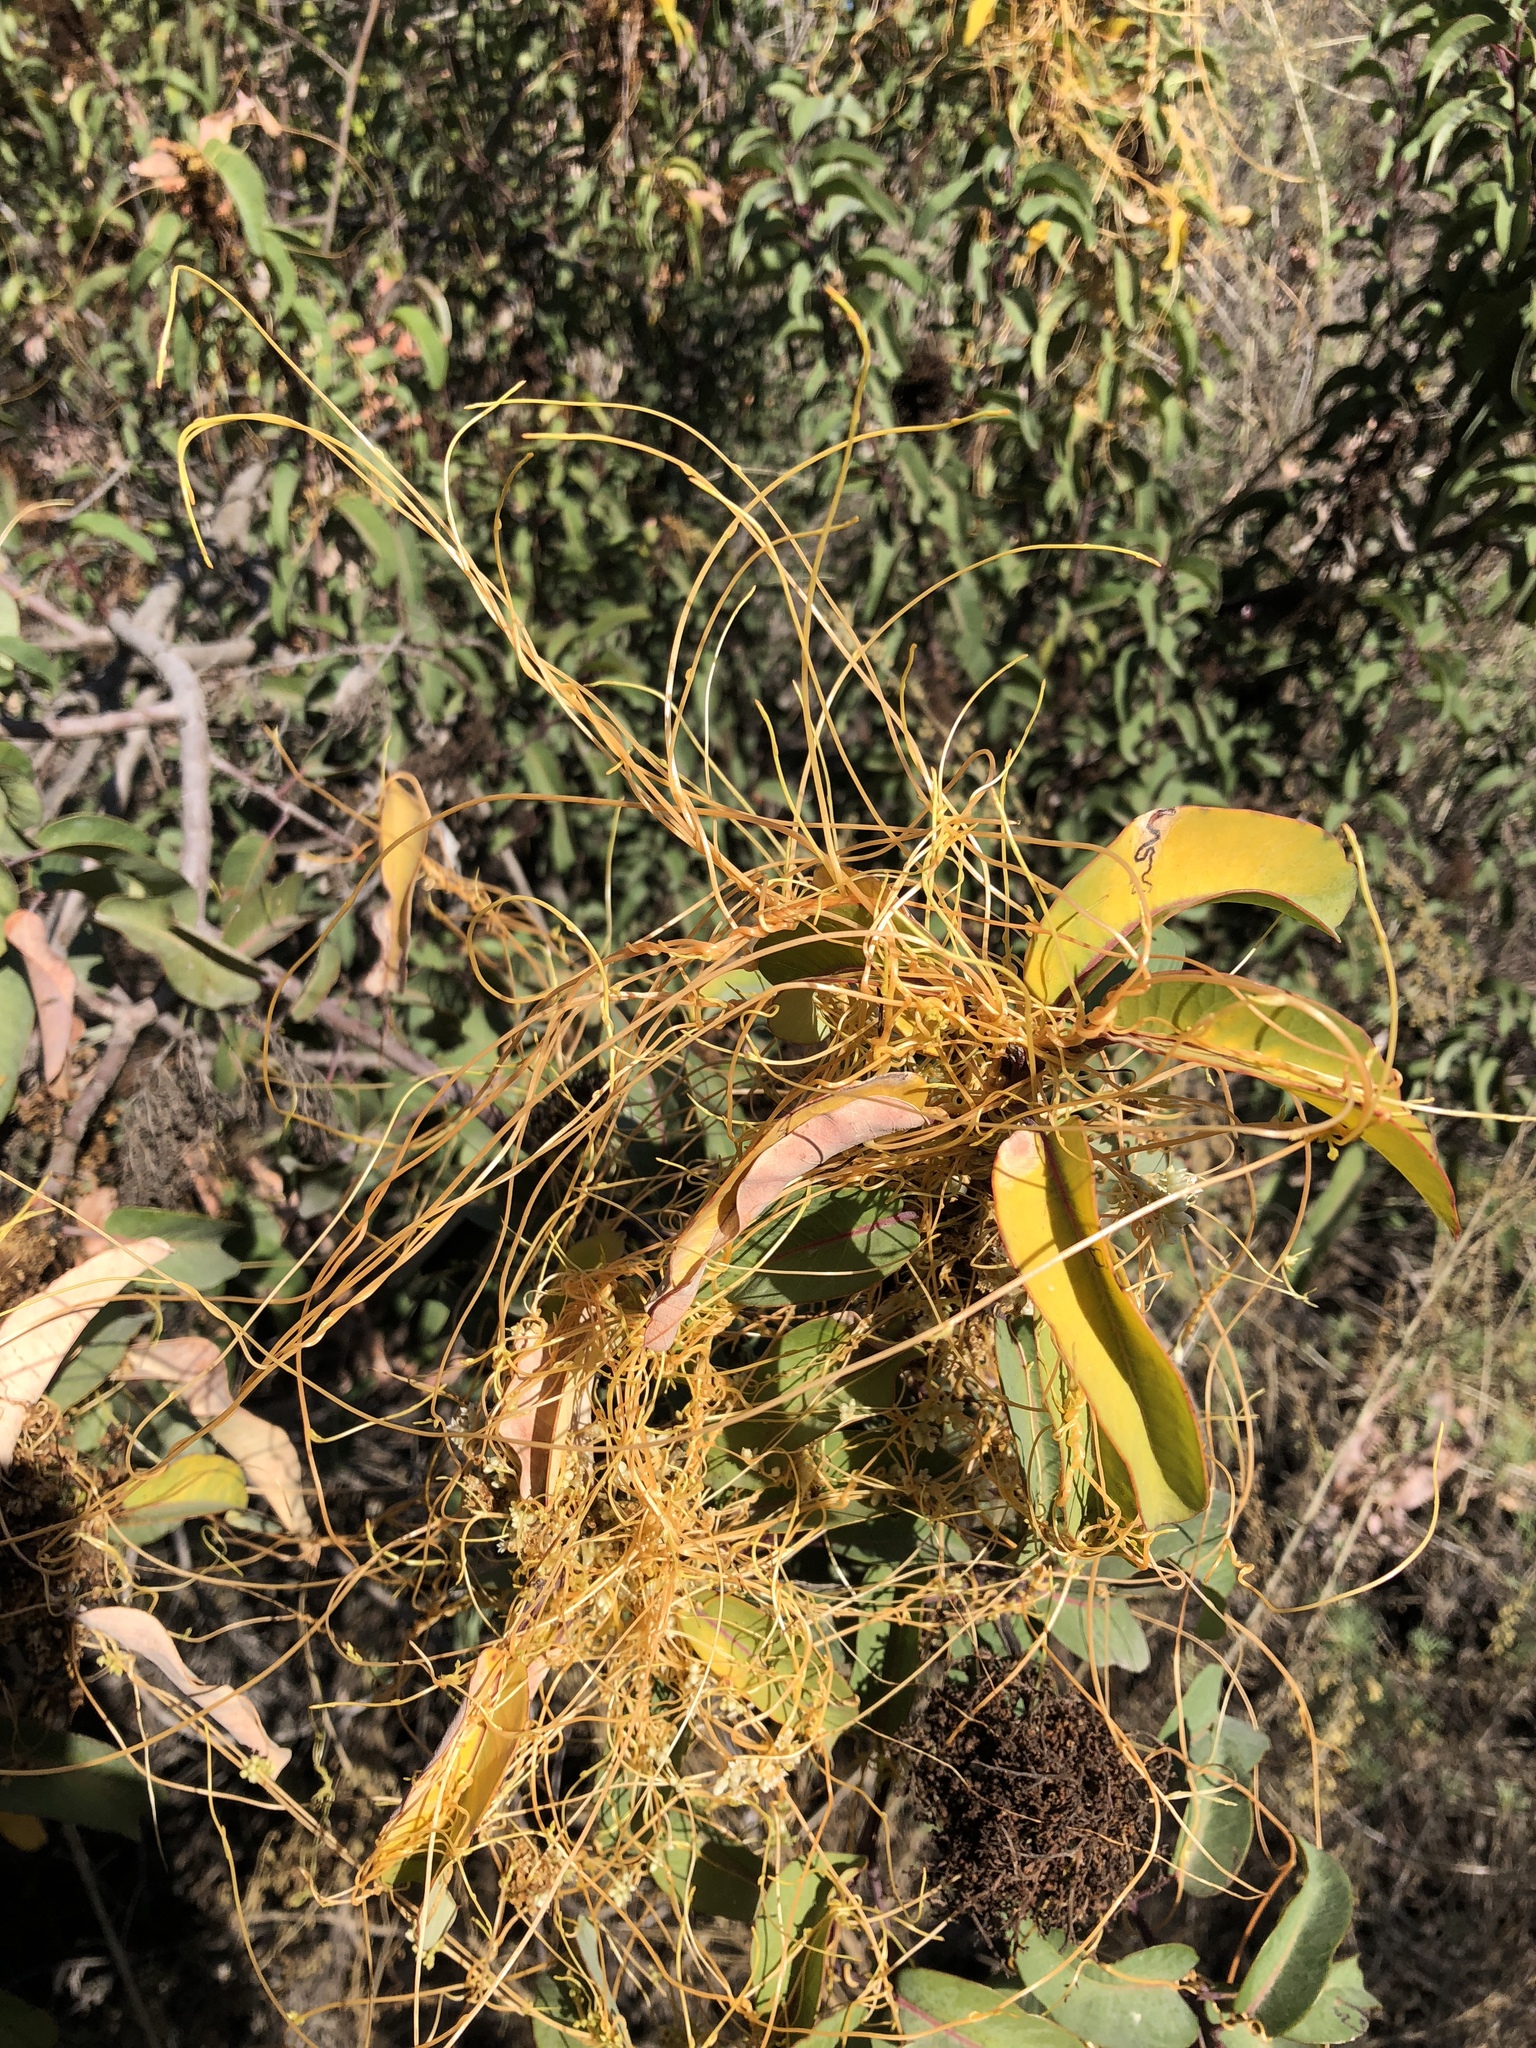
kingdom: Plantae
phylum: Tracheophyta
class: Magnoliopsida
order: Solanales
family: Convolvulaceae
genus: Cuscuta
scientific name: Cuscuta subinclusa
